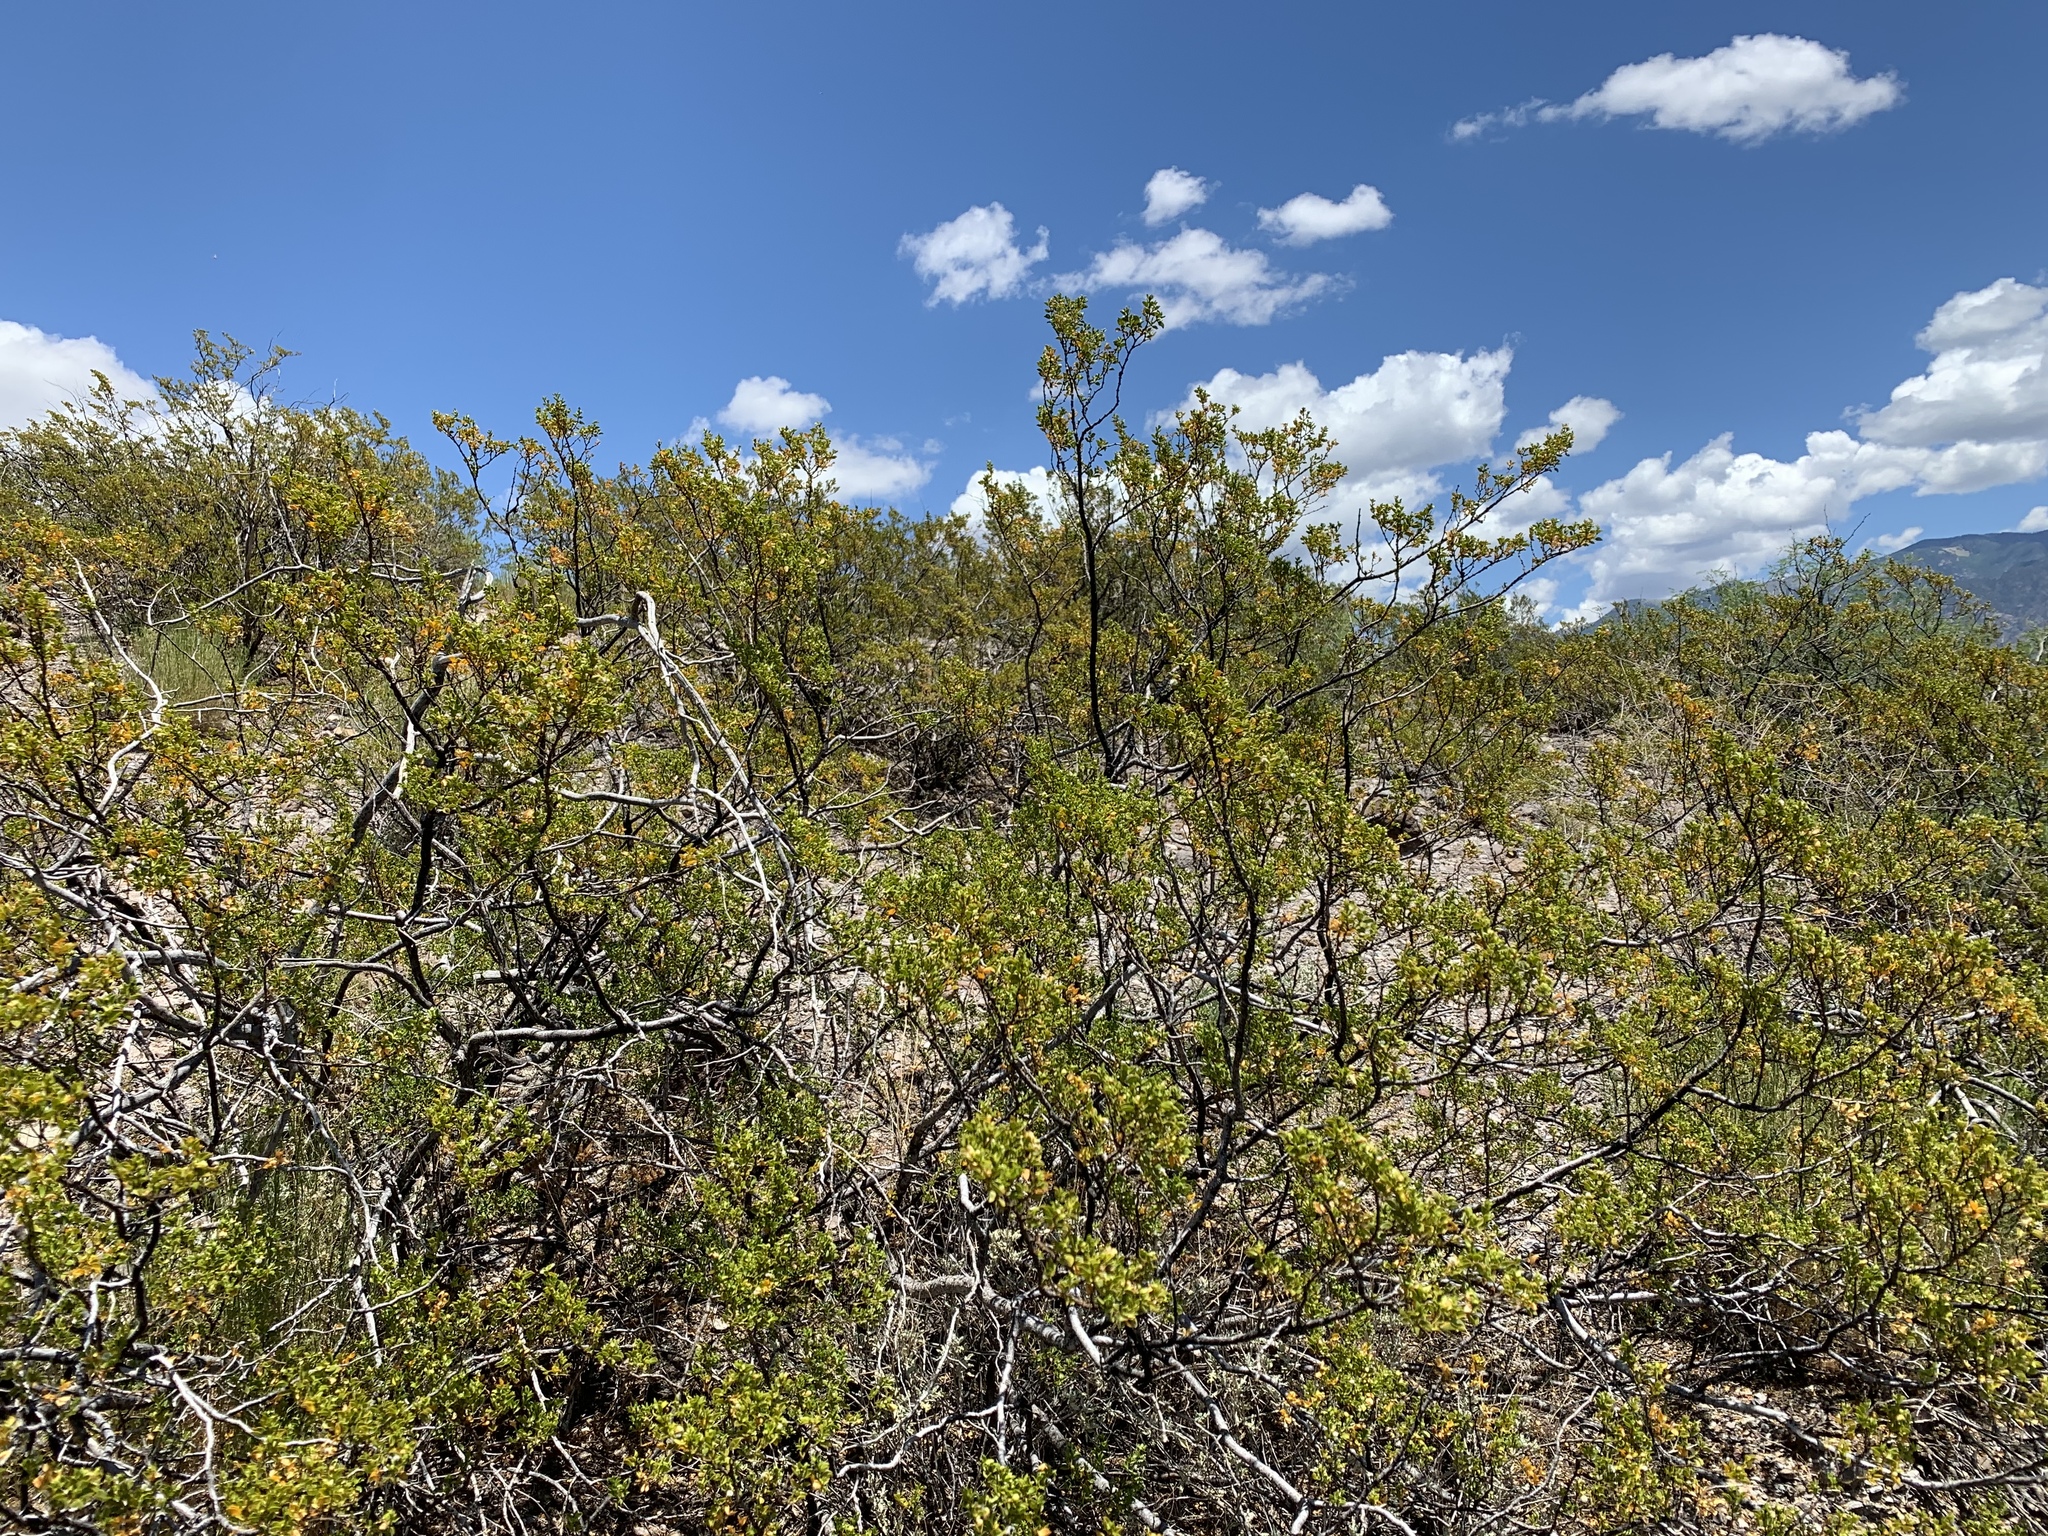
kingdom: Plantae
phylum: Tracheophyta
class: Magnoliopsida
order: Zygophyllales
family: Zygophyllaceae
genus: Larrea
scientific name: Larrea tridentata
